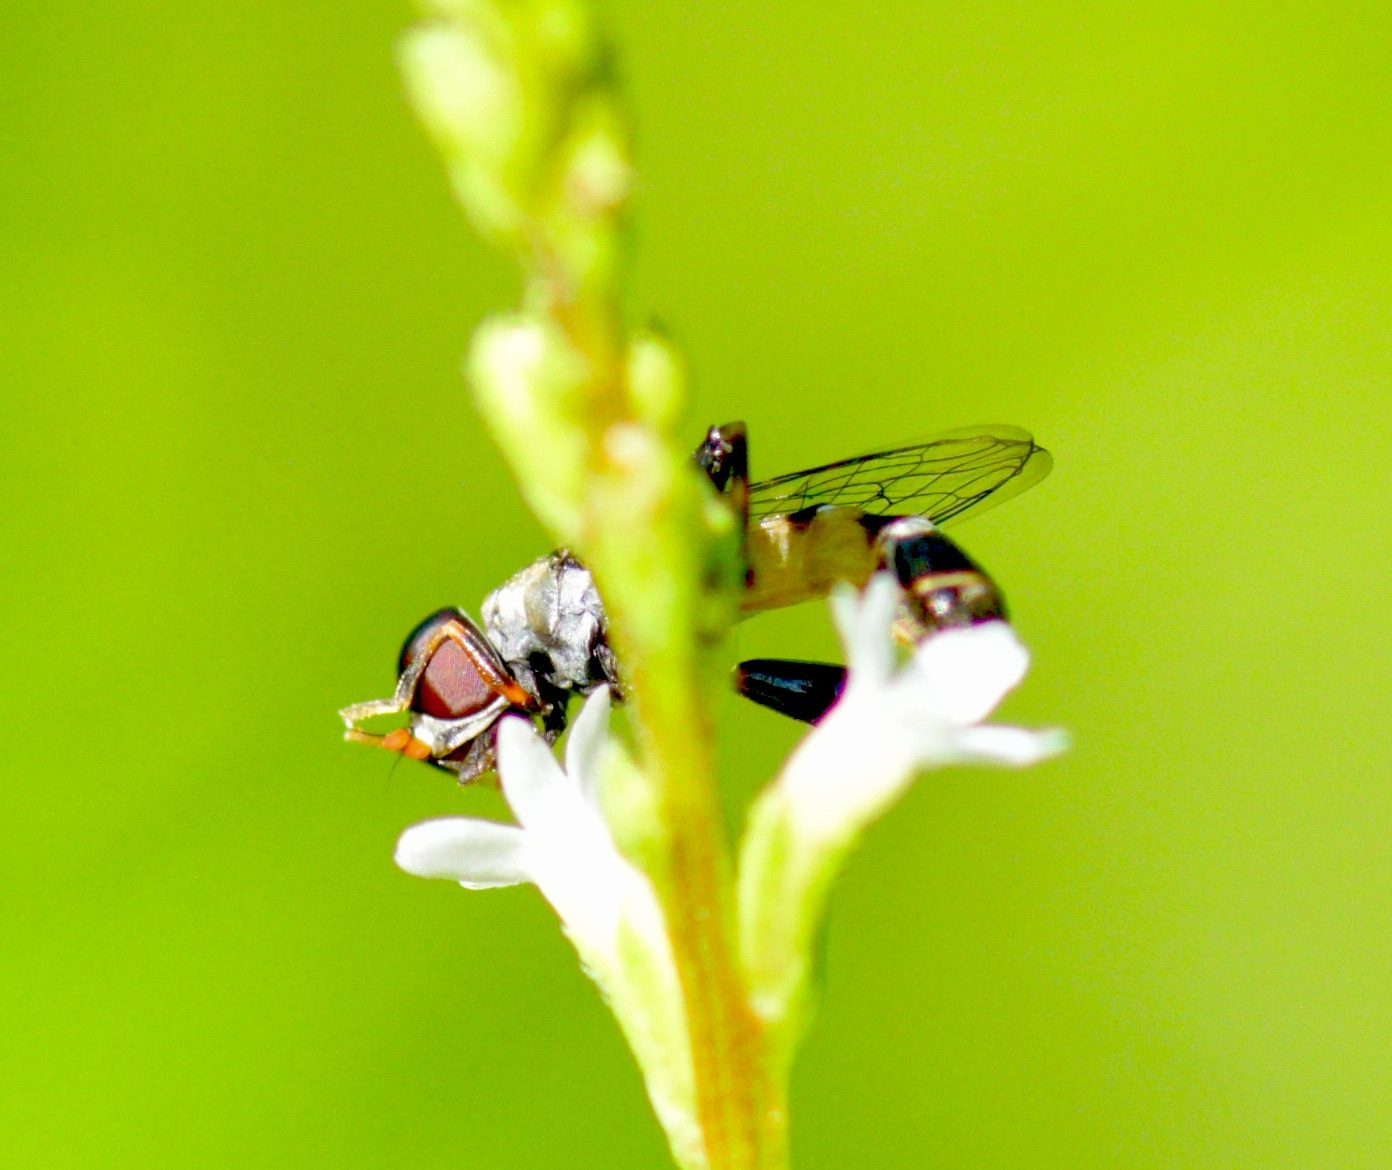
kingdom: Animalia
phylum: Arthropoda
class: Insecta
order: Diptera
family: Syrphidae
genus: Syritta
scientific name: Syritta pipiens
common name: Hover fly
